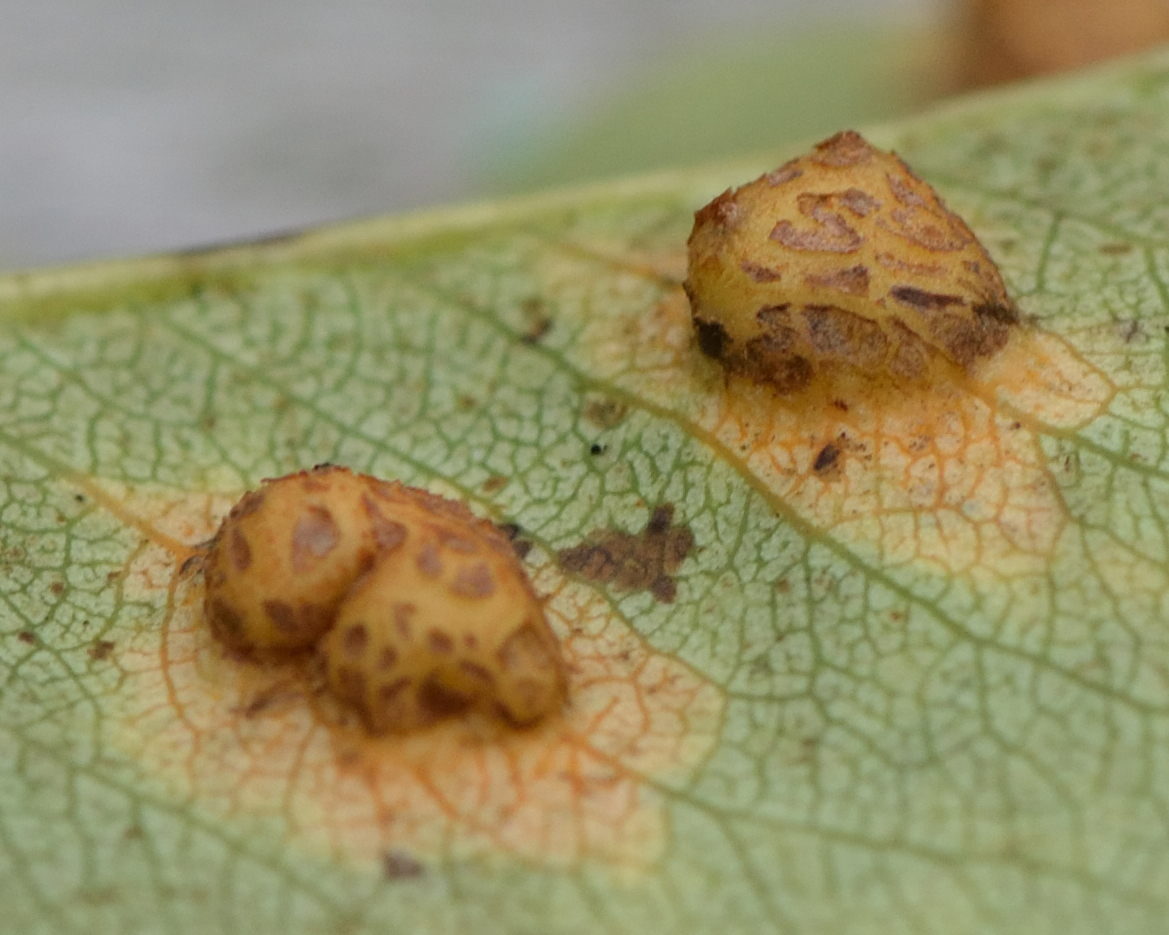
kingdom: Fungi
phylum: Basidiomycota
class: Pucciniomycetes
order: Pucciniales
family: Gymnosporangiaceae
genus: Gymnosporangium
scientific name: Gymnosporangium sabinae
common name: Pear trellis rust fungus
